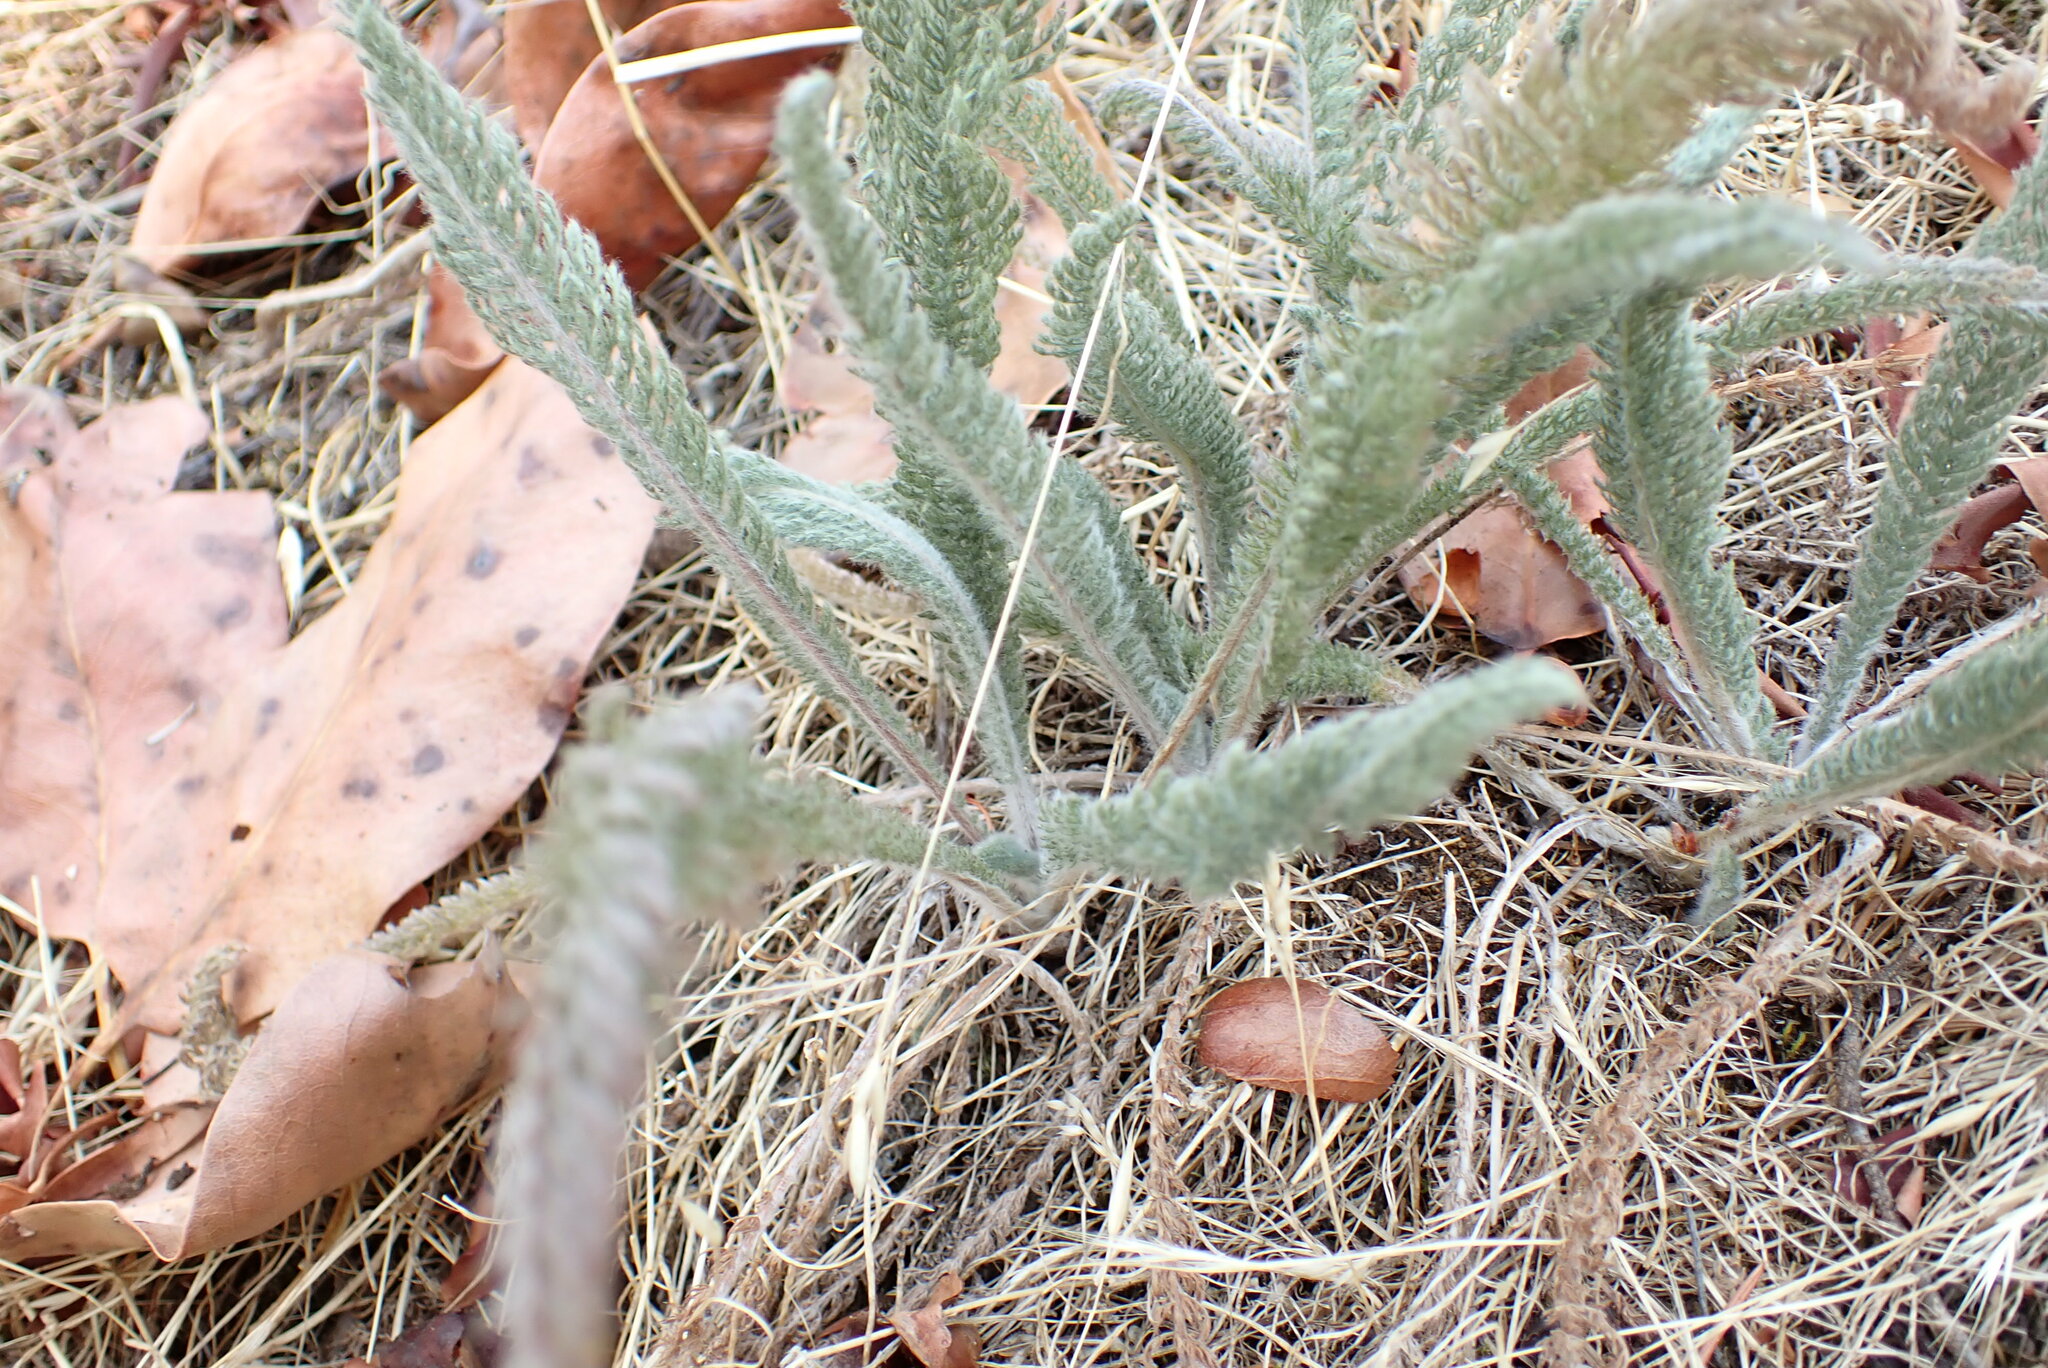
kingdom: Plantae
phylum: Tracheophyta
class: Magnoliopsida
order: Asterales
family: Asteraceae
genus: Achillea
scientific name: Achillea millefolium
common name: Yarrow
